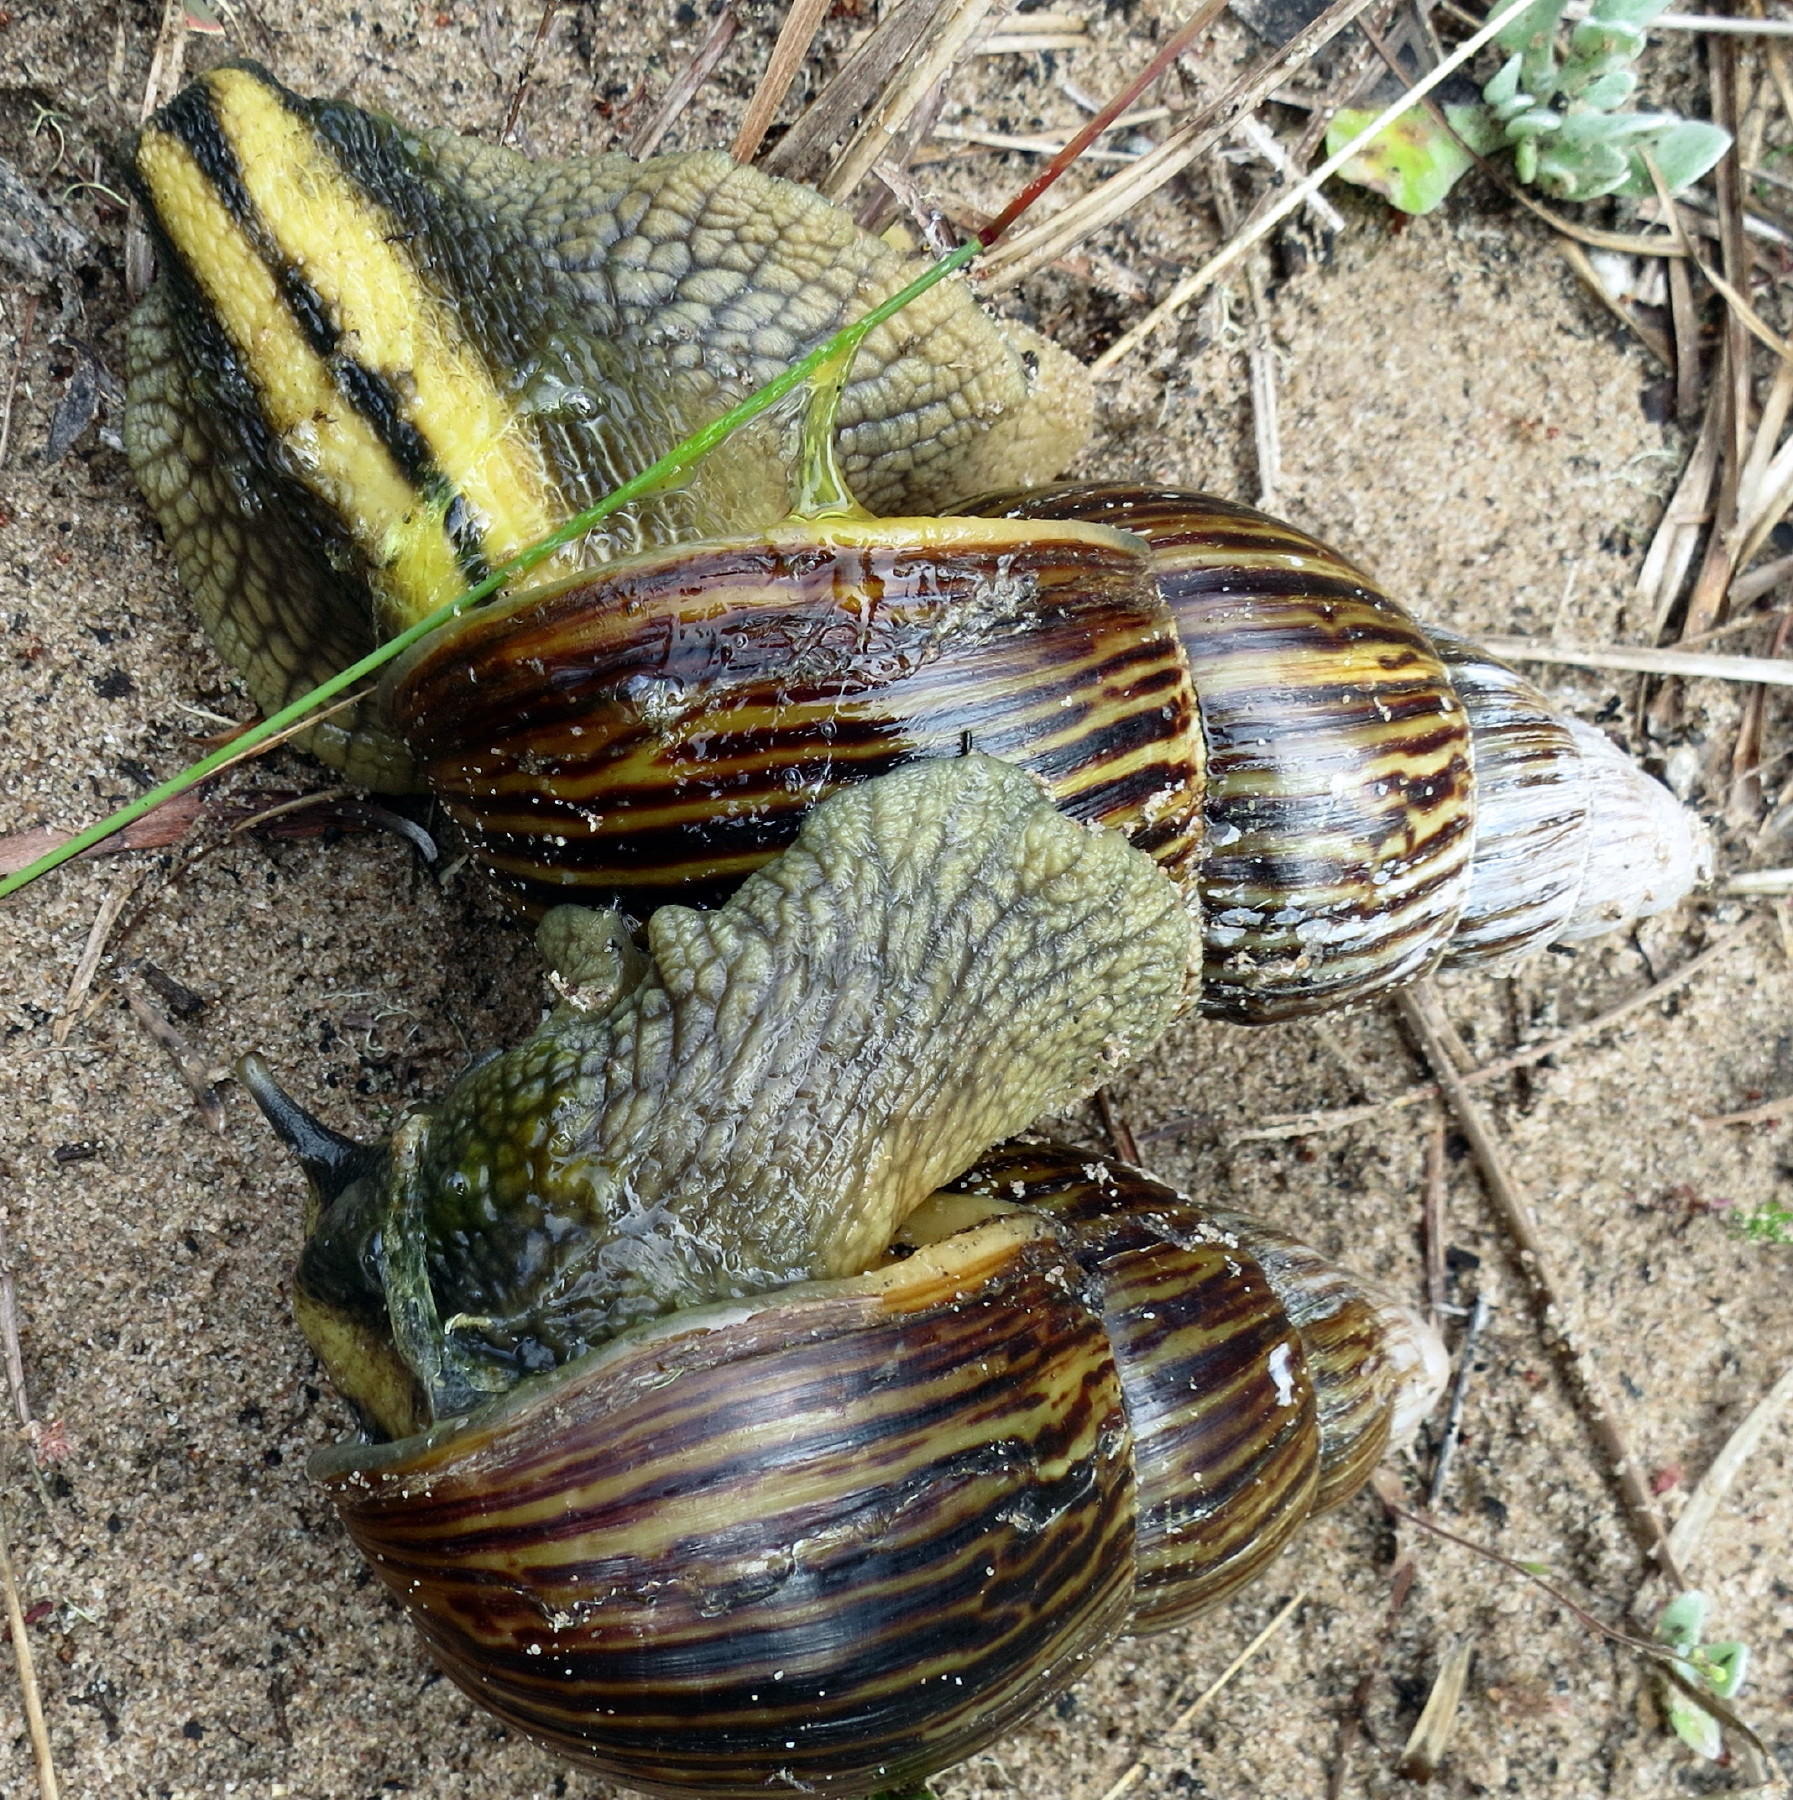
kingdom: Animalia
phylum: Mollusca
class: Gastropoda
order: Stylommatophora
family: Achatinidae
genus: Cochlitoma
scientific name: Cochlitoma zebra
